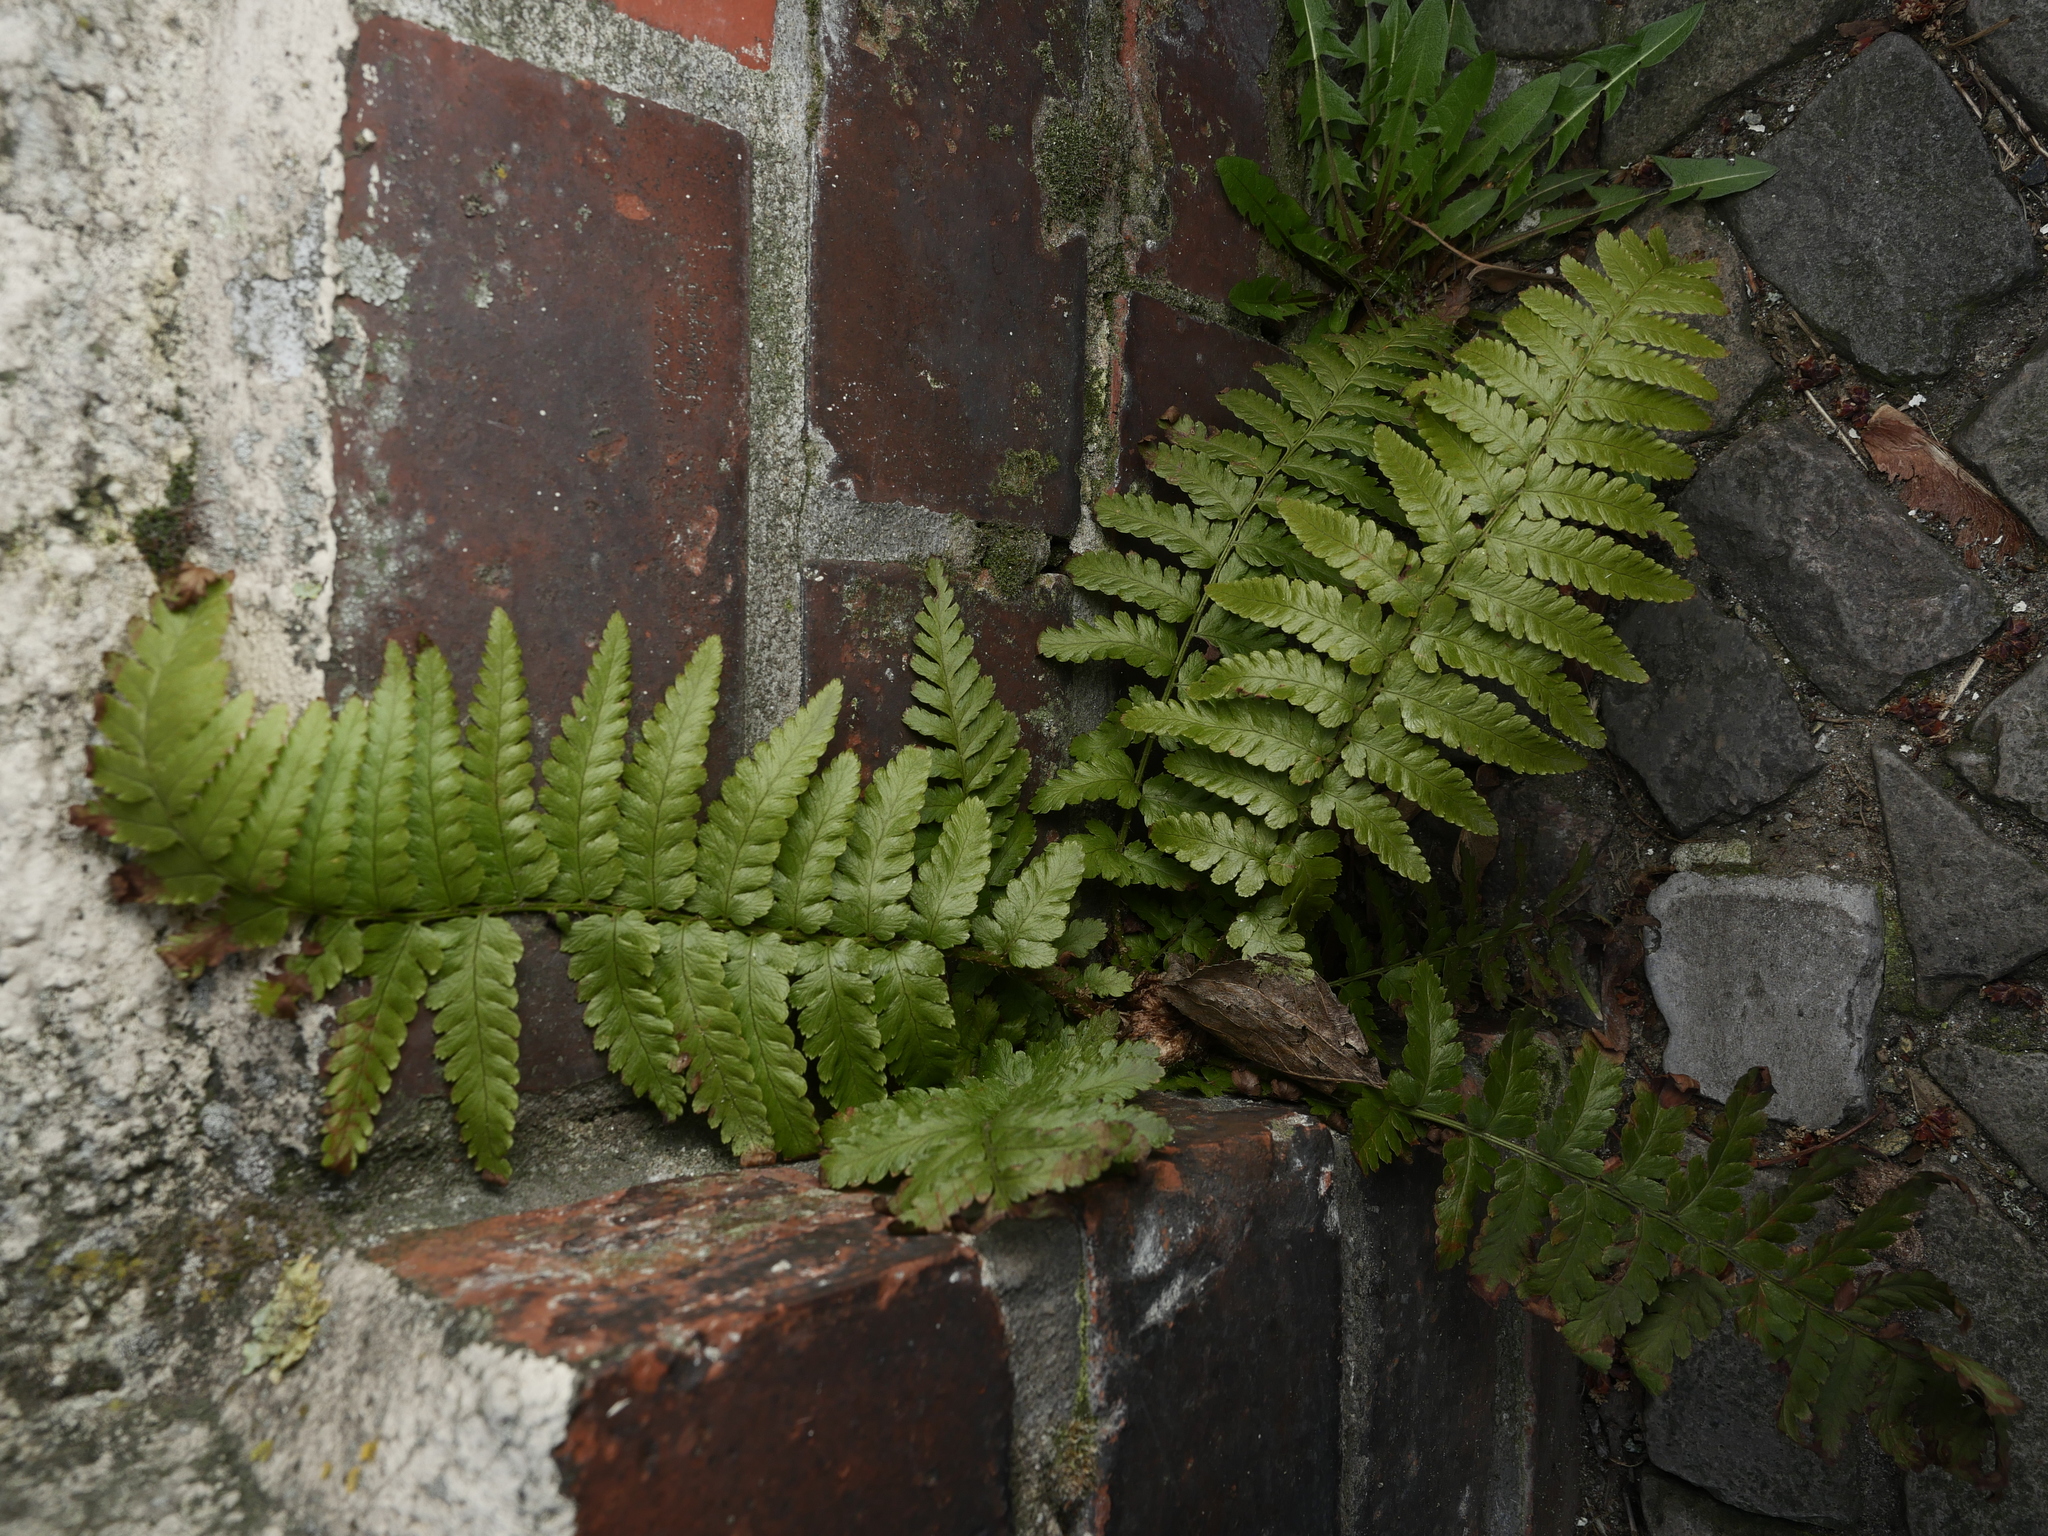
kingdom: Plantae
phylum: Tracheophyta
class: Polypodiopsida
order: Polypodiales
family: Dryopteridaceae
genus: Dryopteris
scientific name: Dryopteris filix-mas
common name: Male fern
